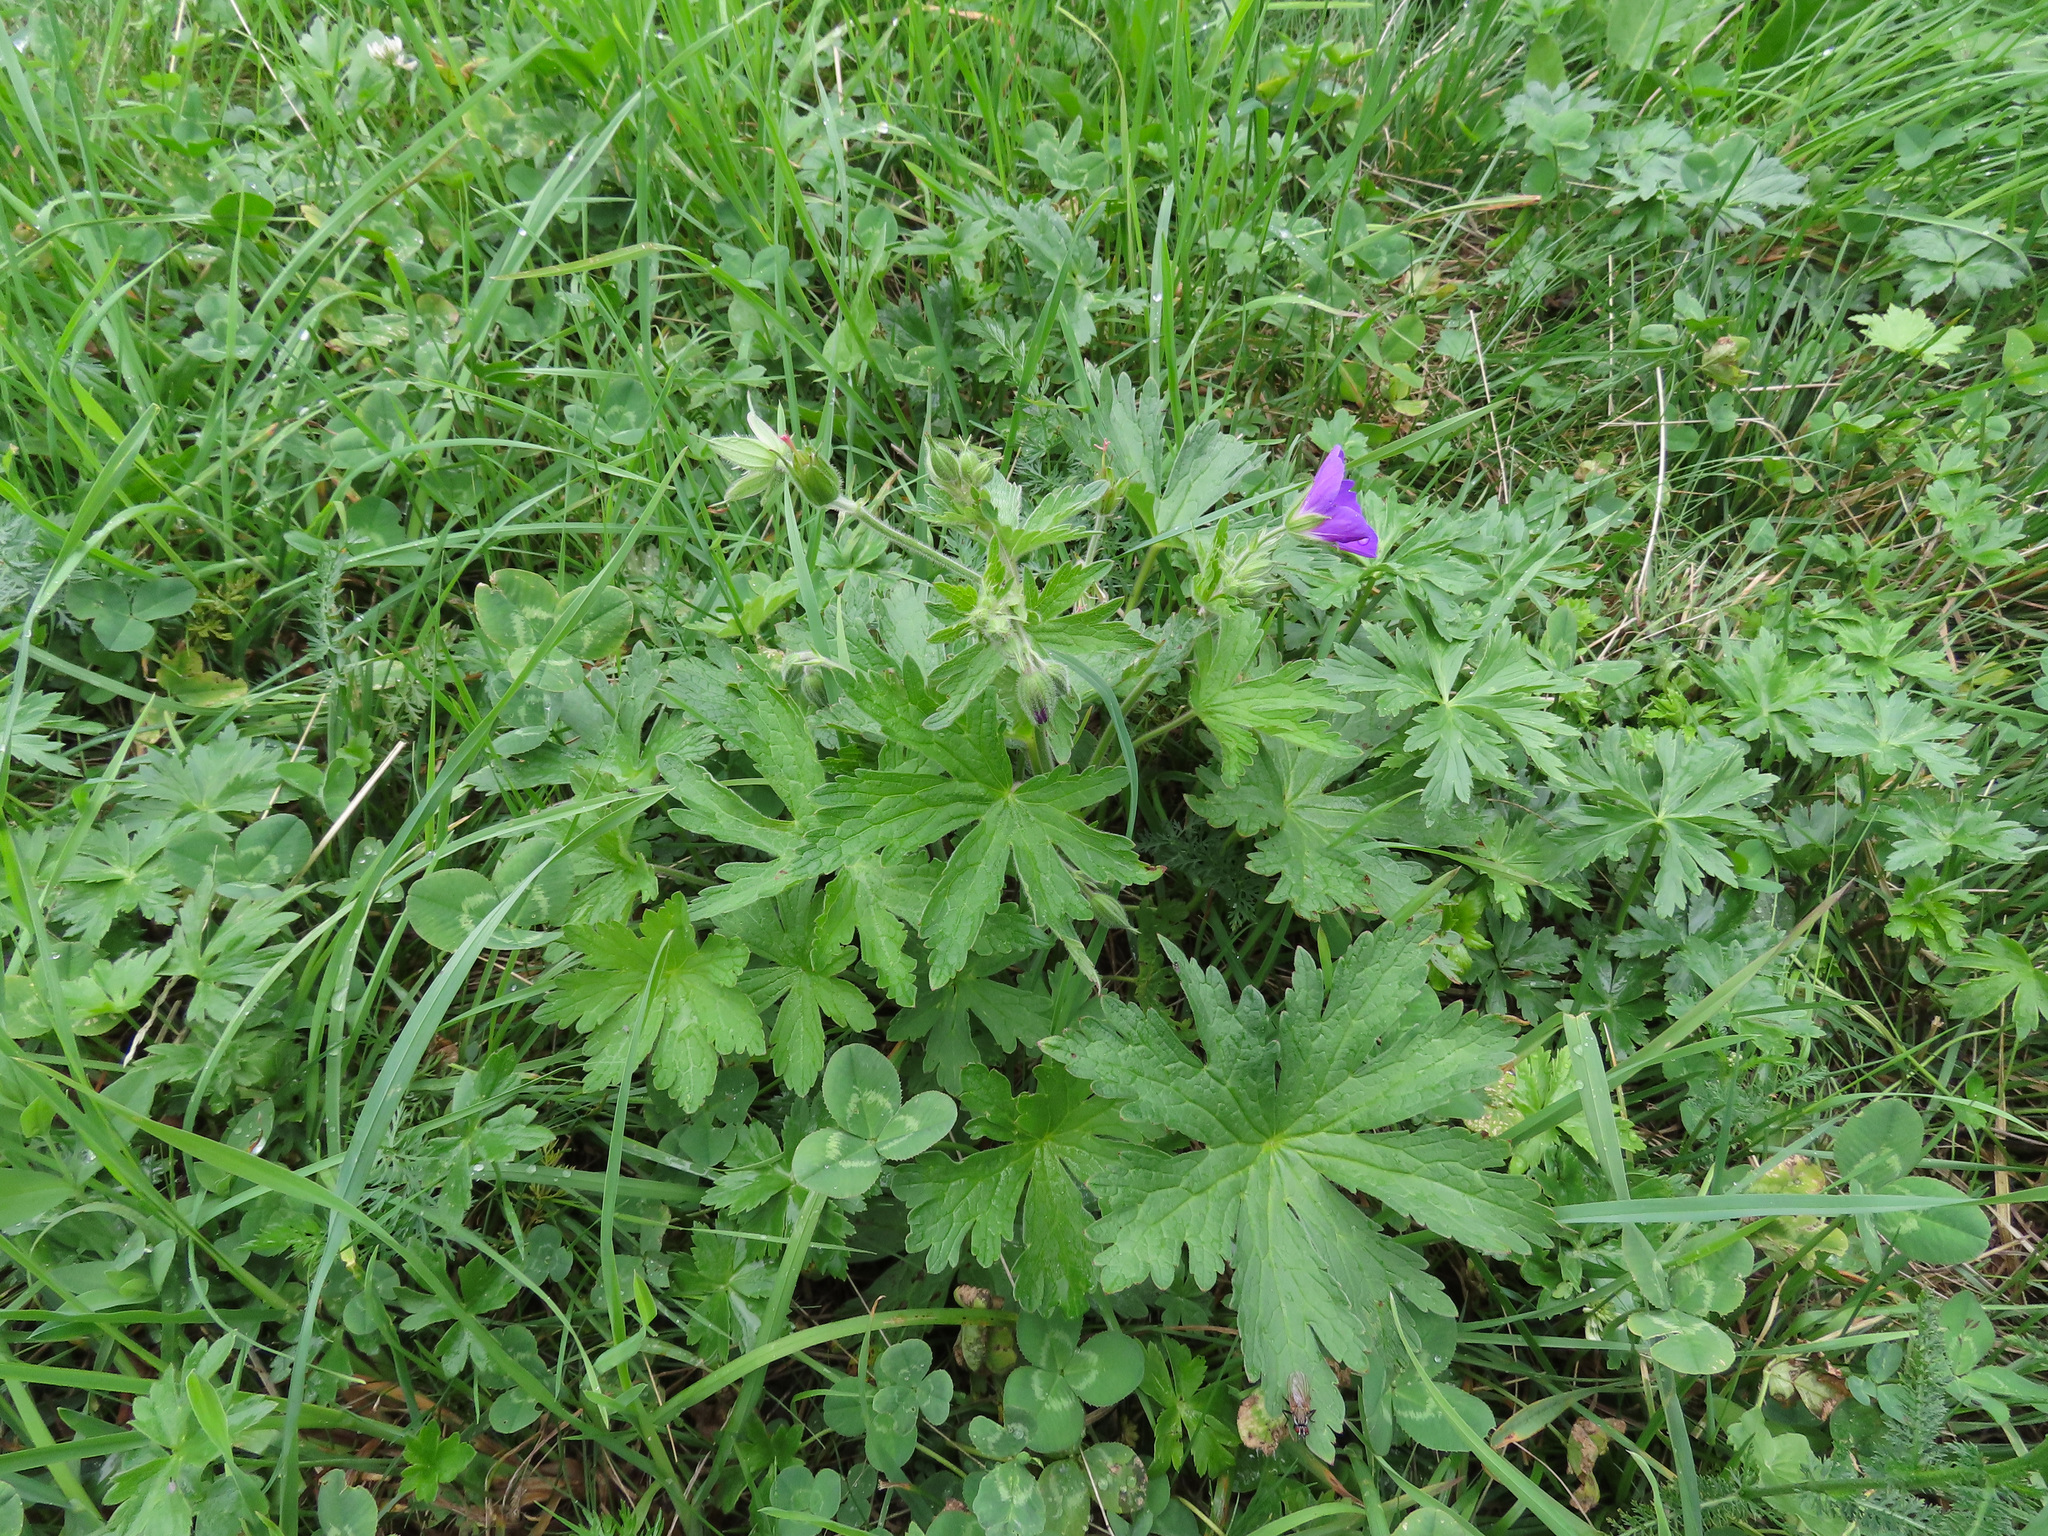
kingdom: Plantae
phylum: Tracheophyta
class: Magnoliopsida
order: Geraniales
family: Geraniaceae
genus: Geranium
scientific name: Geranium sylvaticum
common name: Wood crane's-bill
